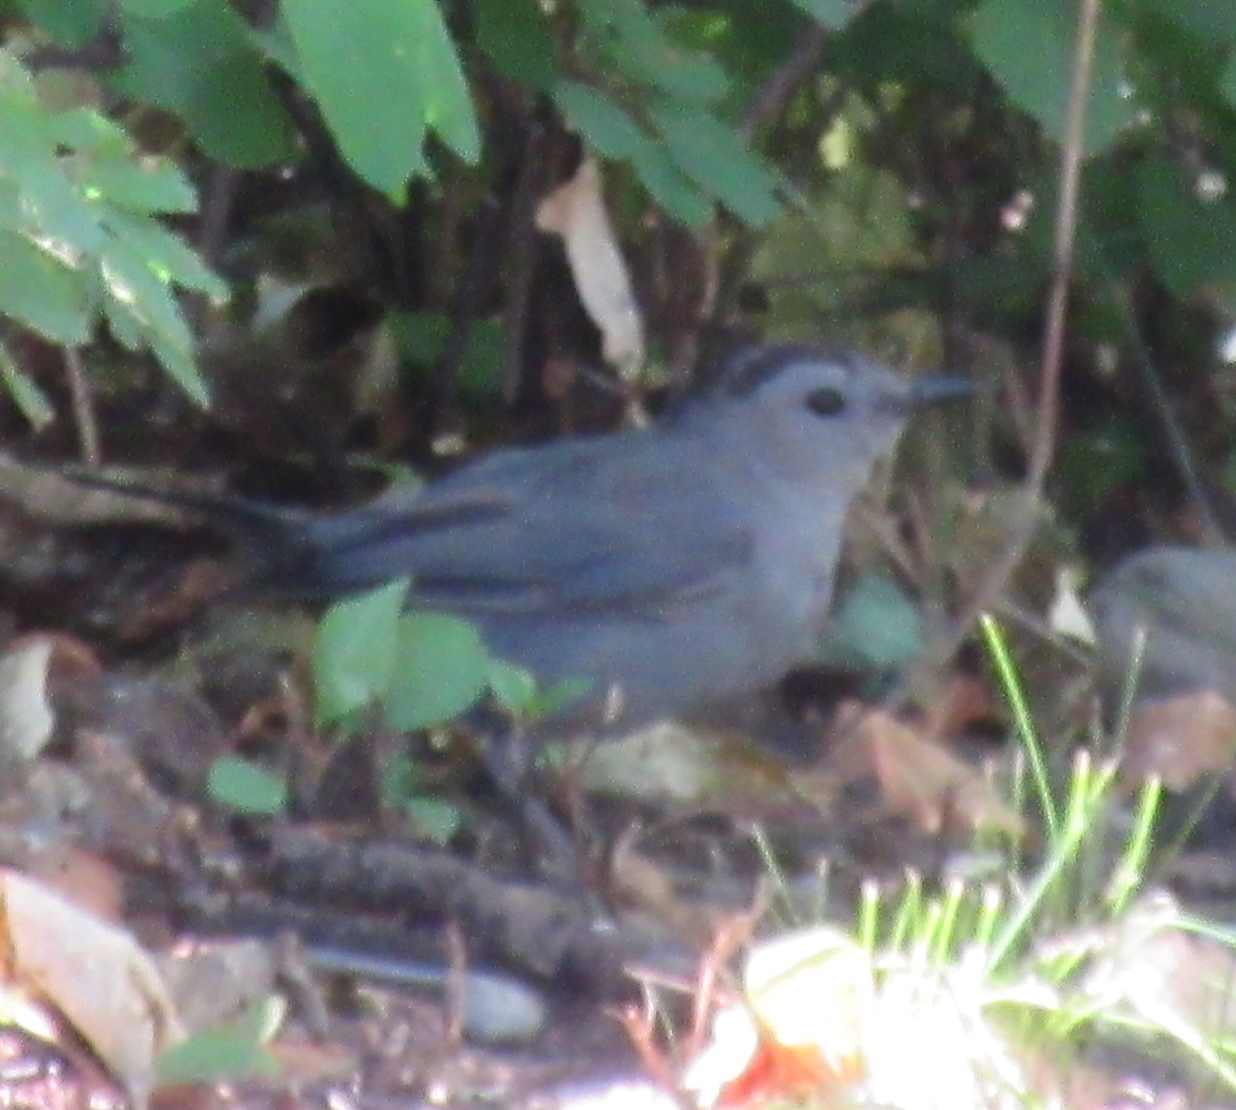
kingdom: Animalia
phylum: Chordata
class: Aves
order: Passeriformes
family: Mimidae
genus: Dumetella
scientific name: Dumetella carolinensis
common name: Gray catbird
